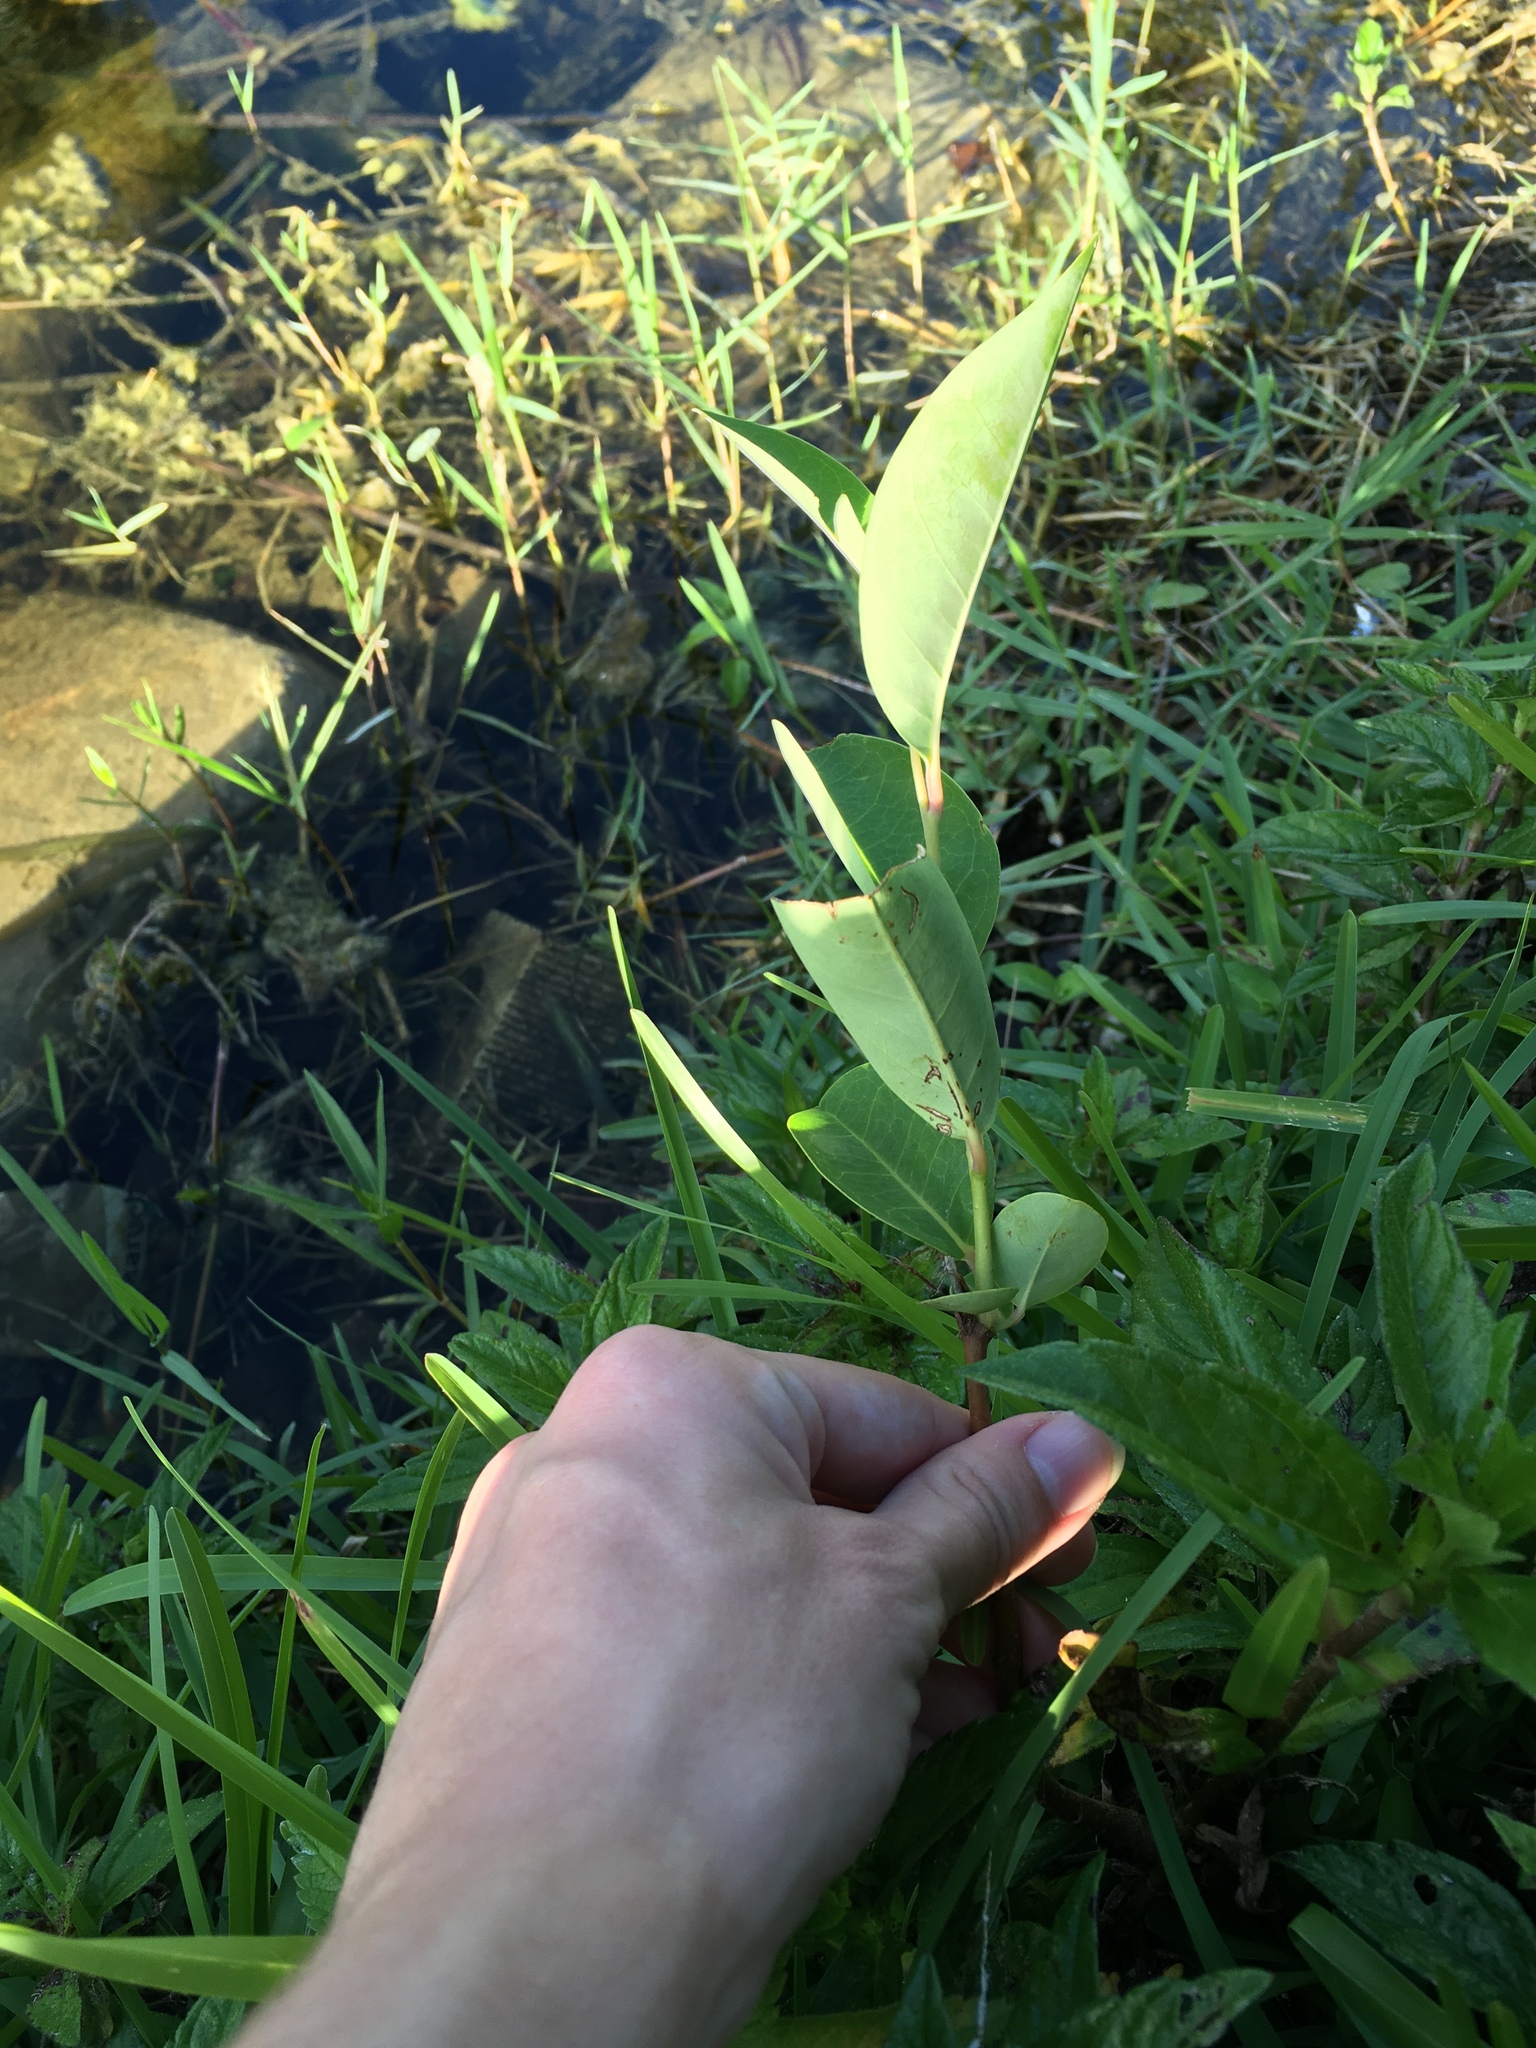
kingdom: Plantae
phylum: Tracheophyta
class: Magnoliopsida
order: Magnoliales
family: Annonaceae
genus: Annona
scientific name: Annona glabra
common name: Monkey apple
